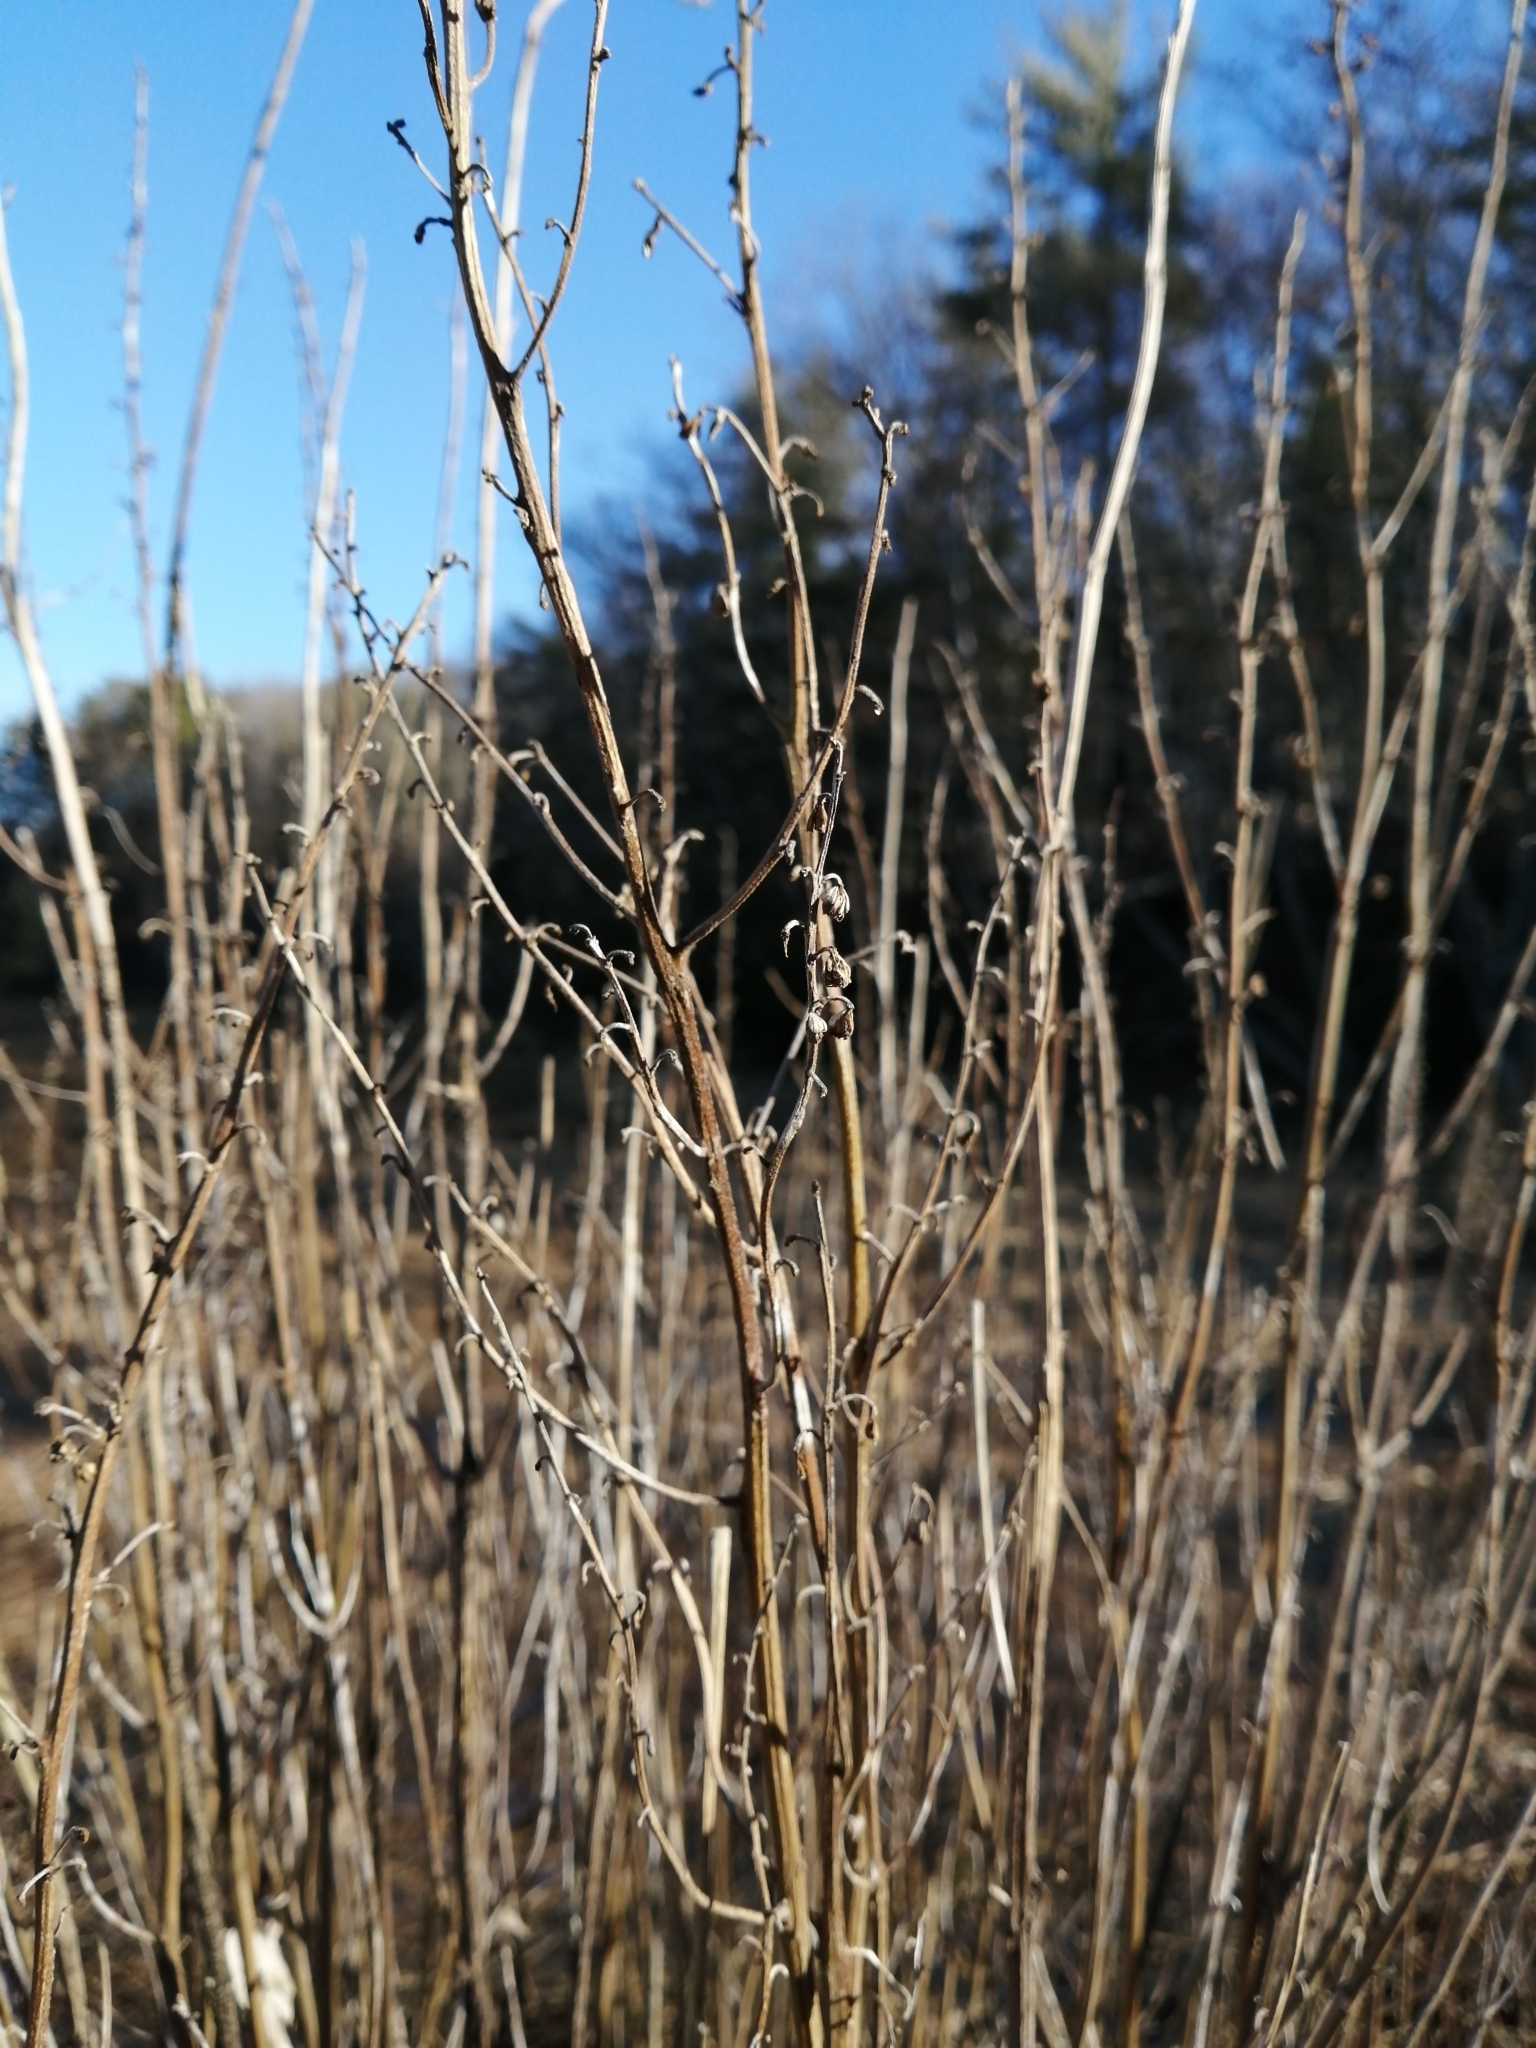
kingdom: Plantae
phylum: Tracheophyta
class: Magnoliopsida
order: Asterales
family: Asteraceae
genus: Iva
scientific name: Iva frutescens
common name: Big-leaved marsh-elder
